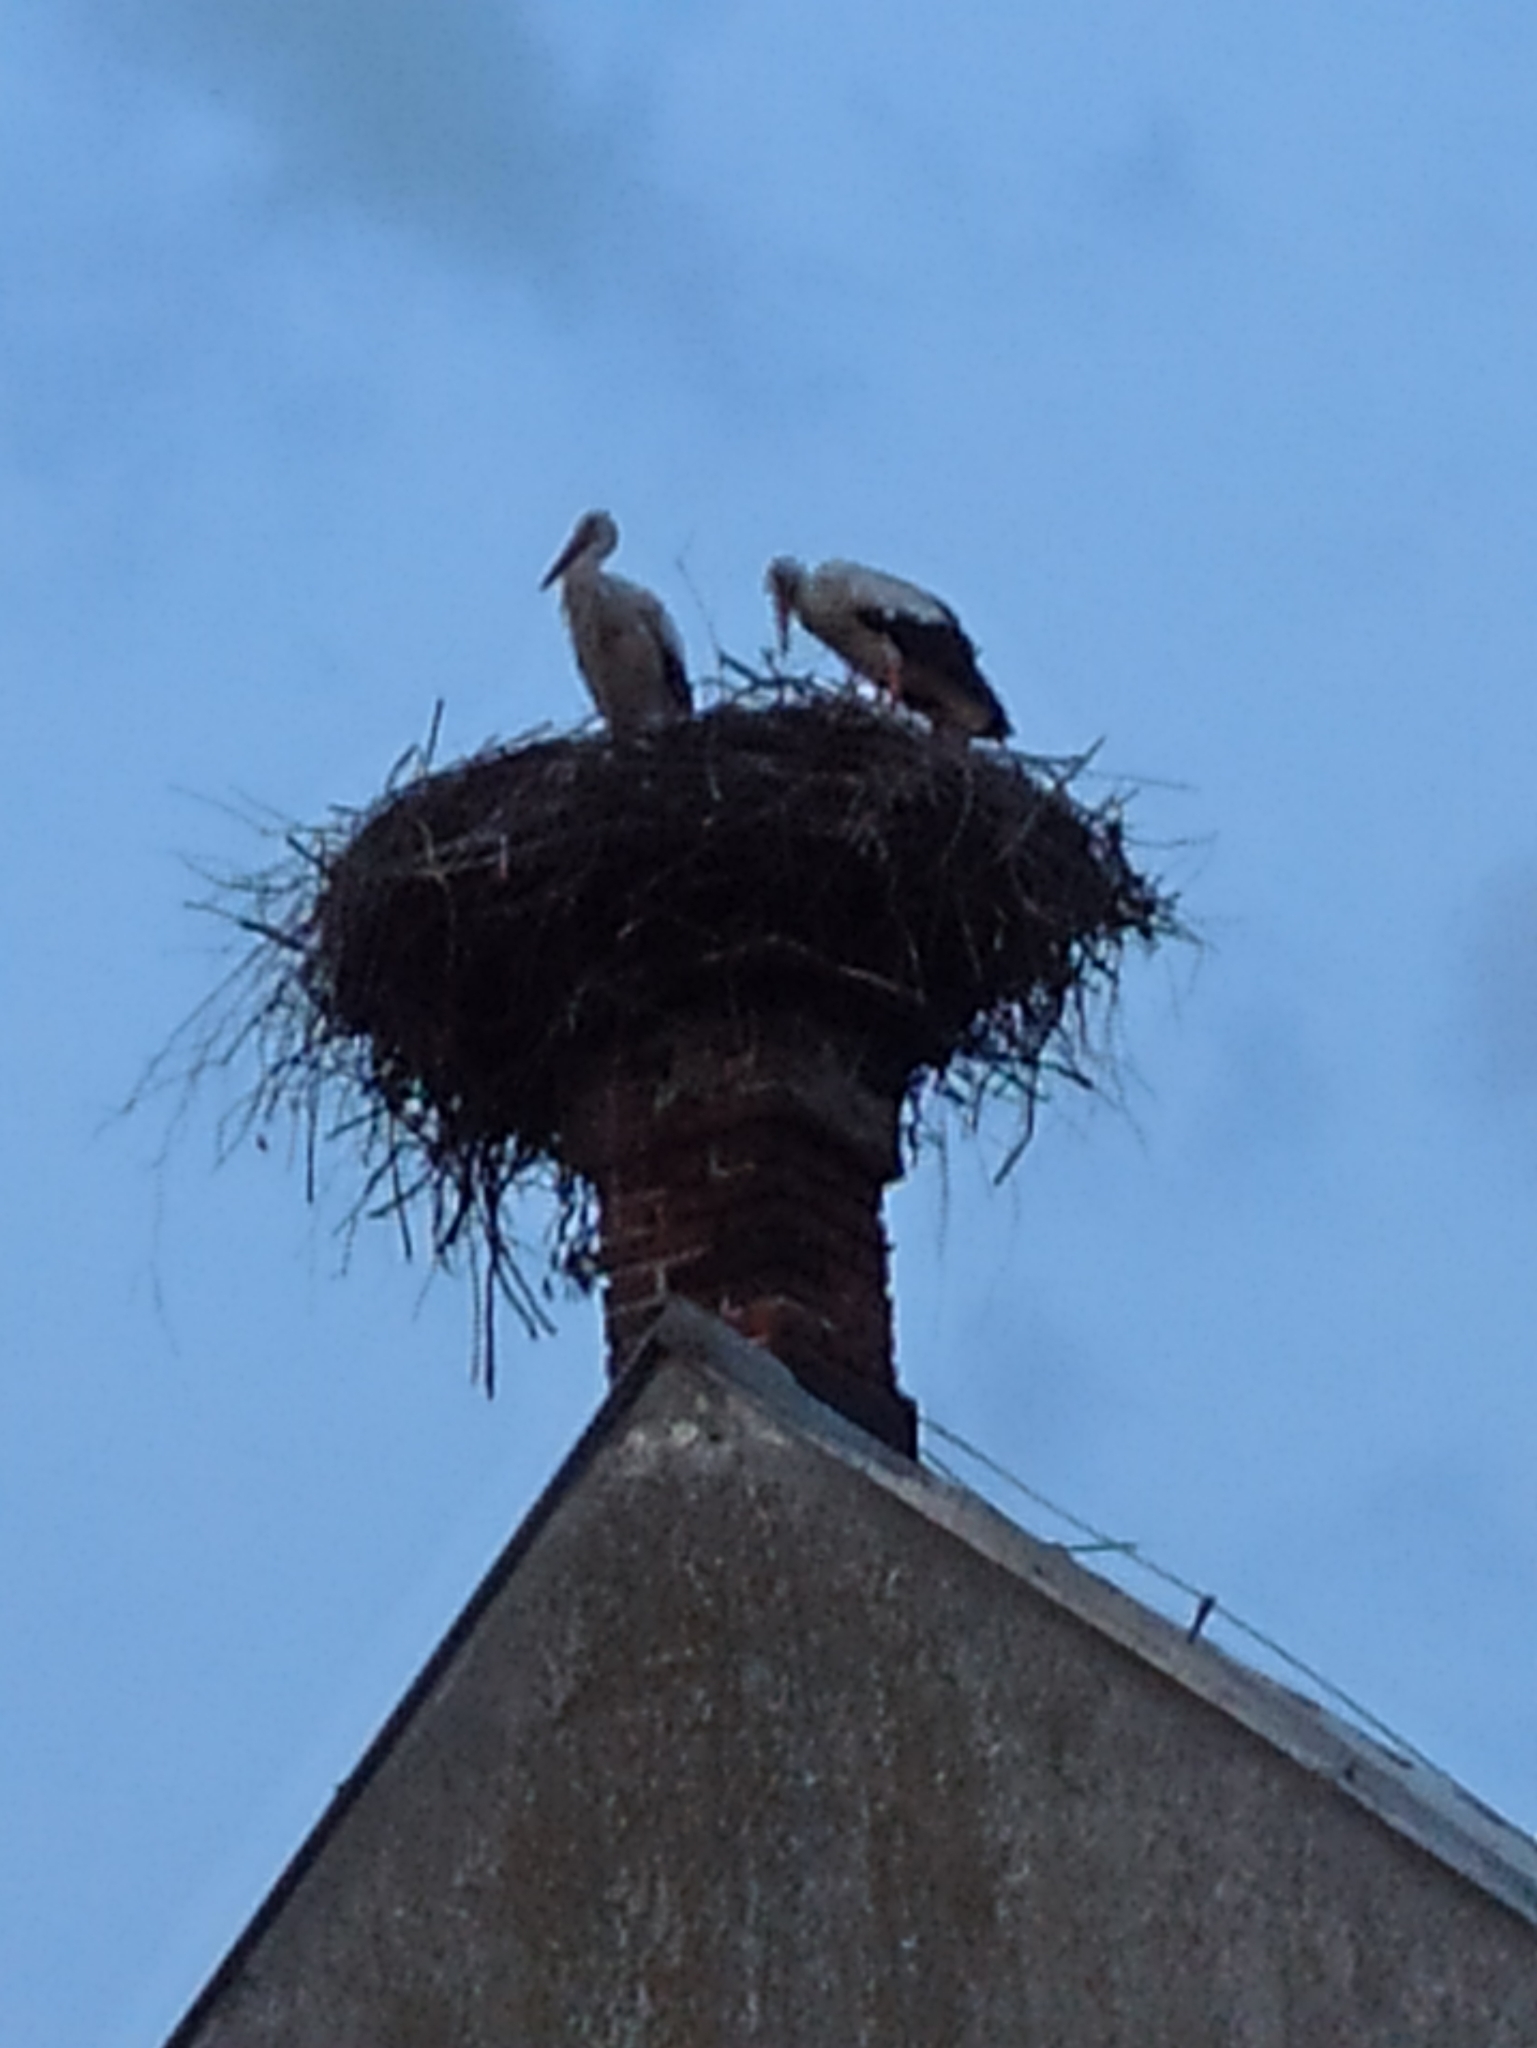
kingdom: Animalia
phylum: Chordata
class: Aves
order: Ciconiiformes
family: Ciconiidae
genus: Ciconia
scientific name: Ciconia ciconia
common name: White stork
